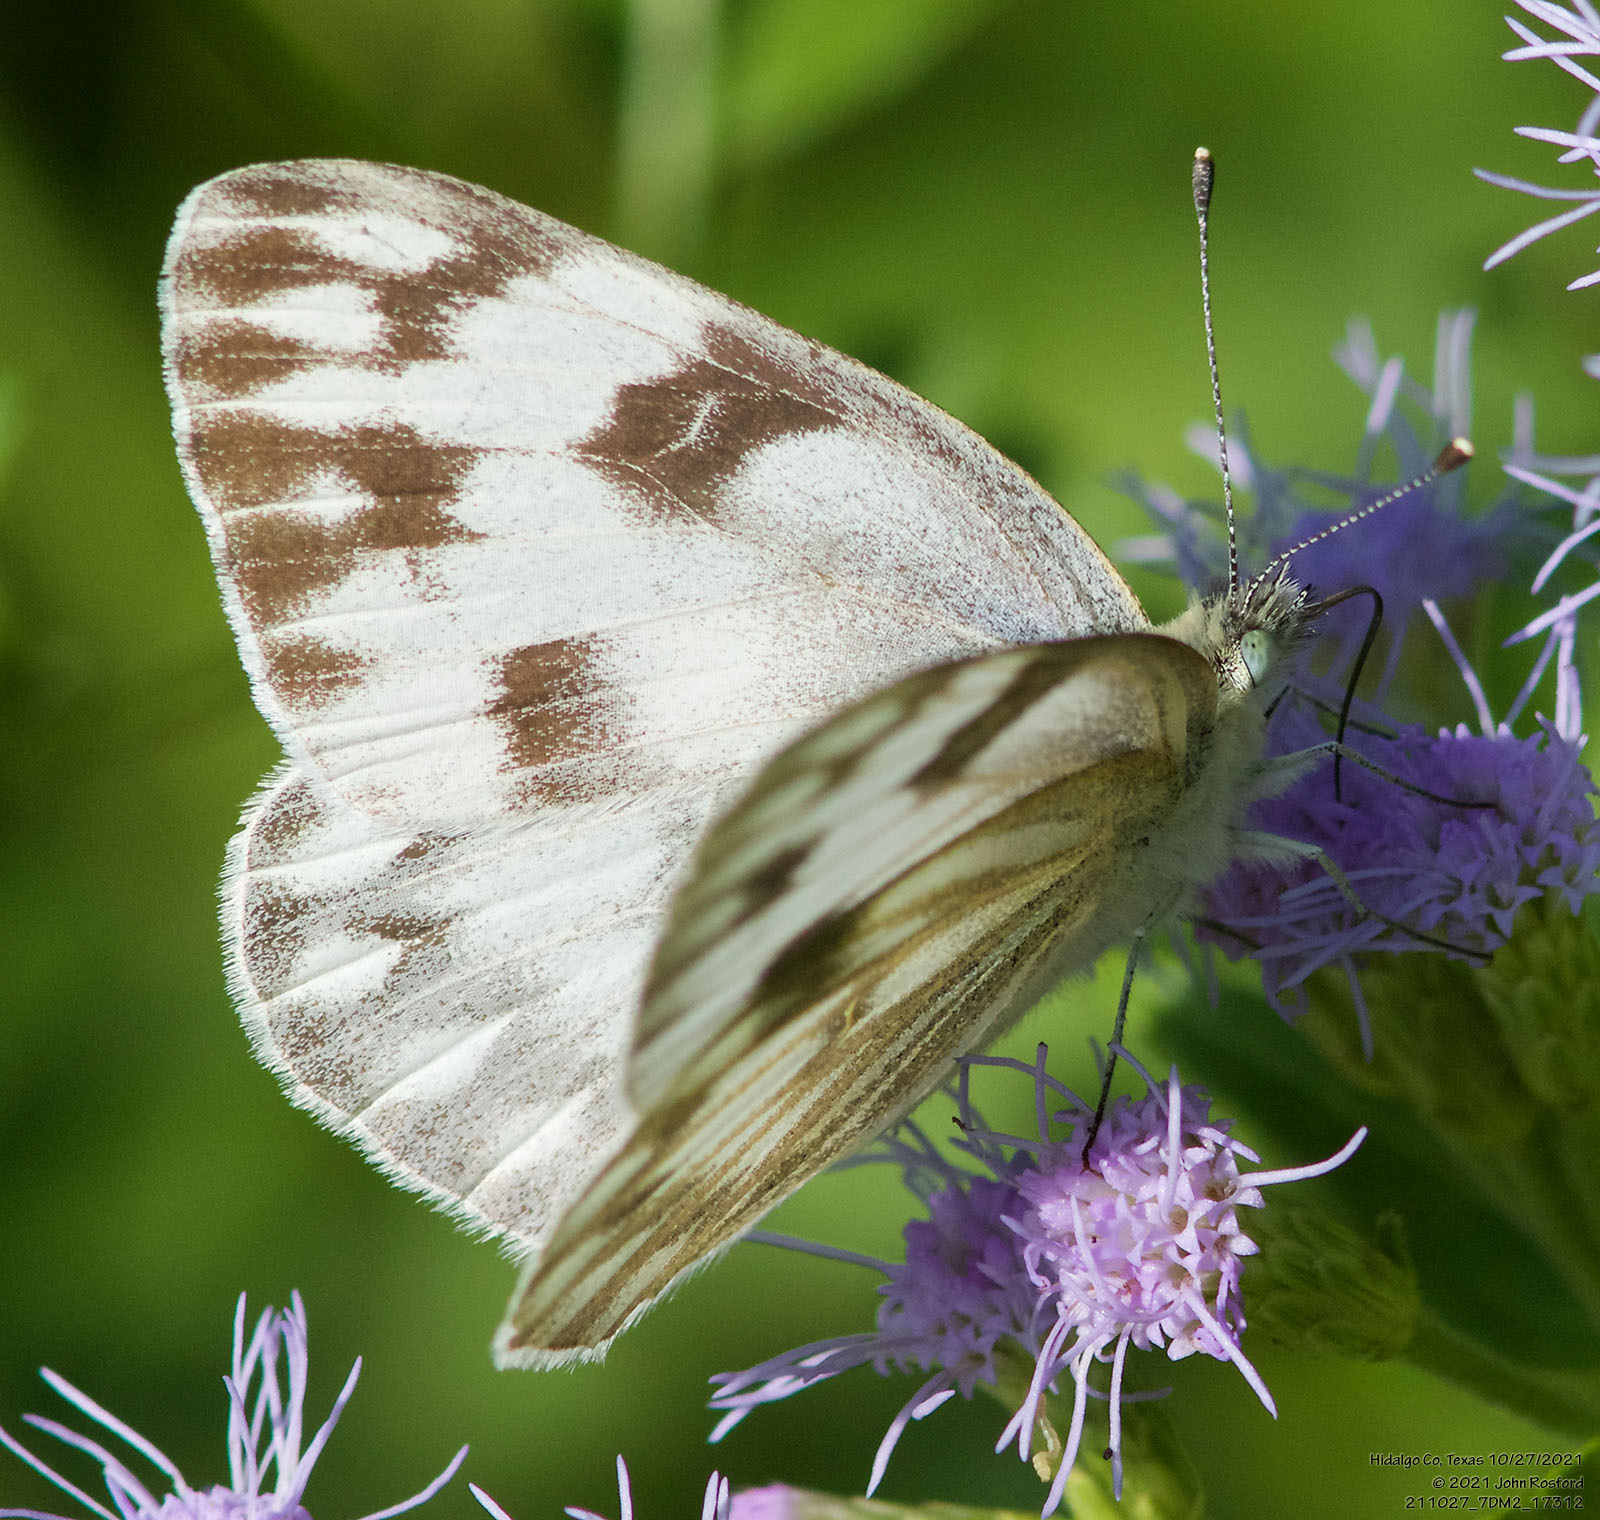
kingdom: Animalia
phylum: Arthropoda
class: Insecta
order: Lepidoptera
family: Pieridae
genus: Pontia
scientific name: Pontia protodice
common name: Checkered white
